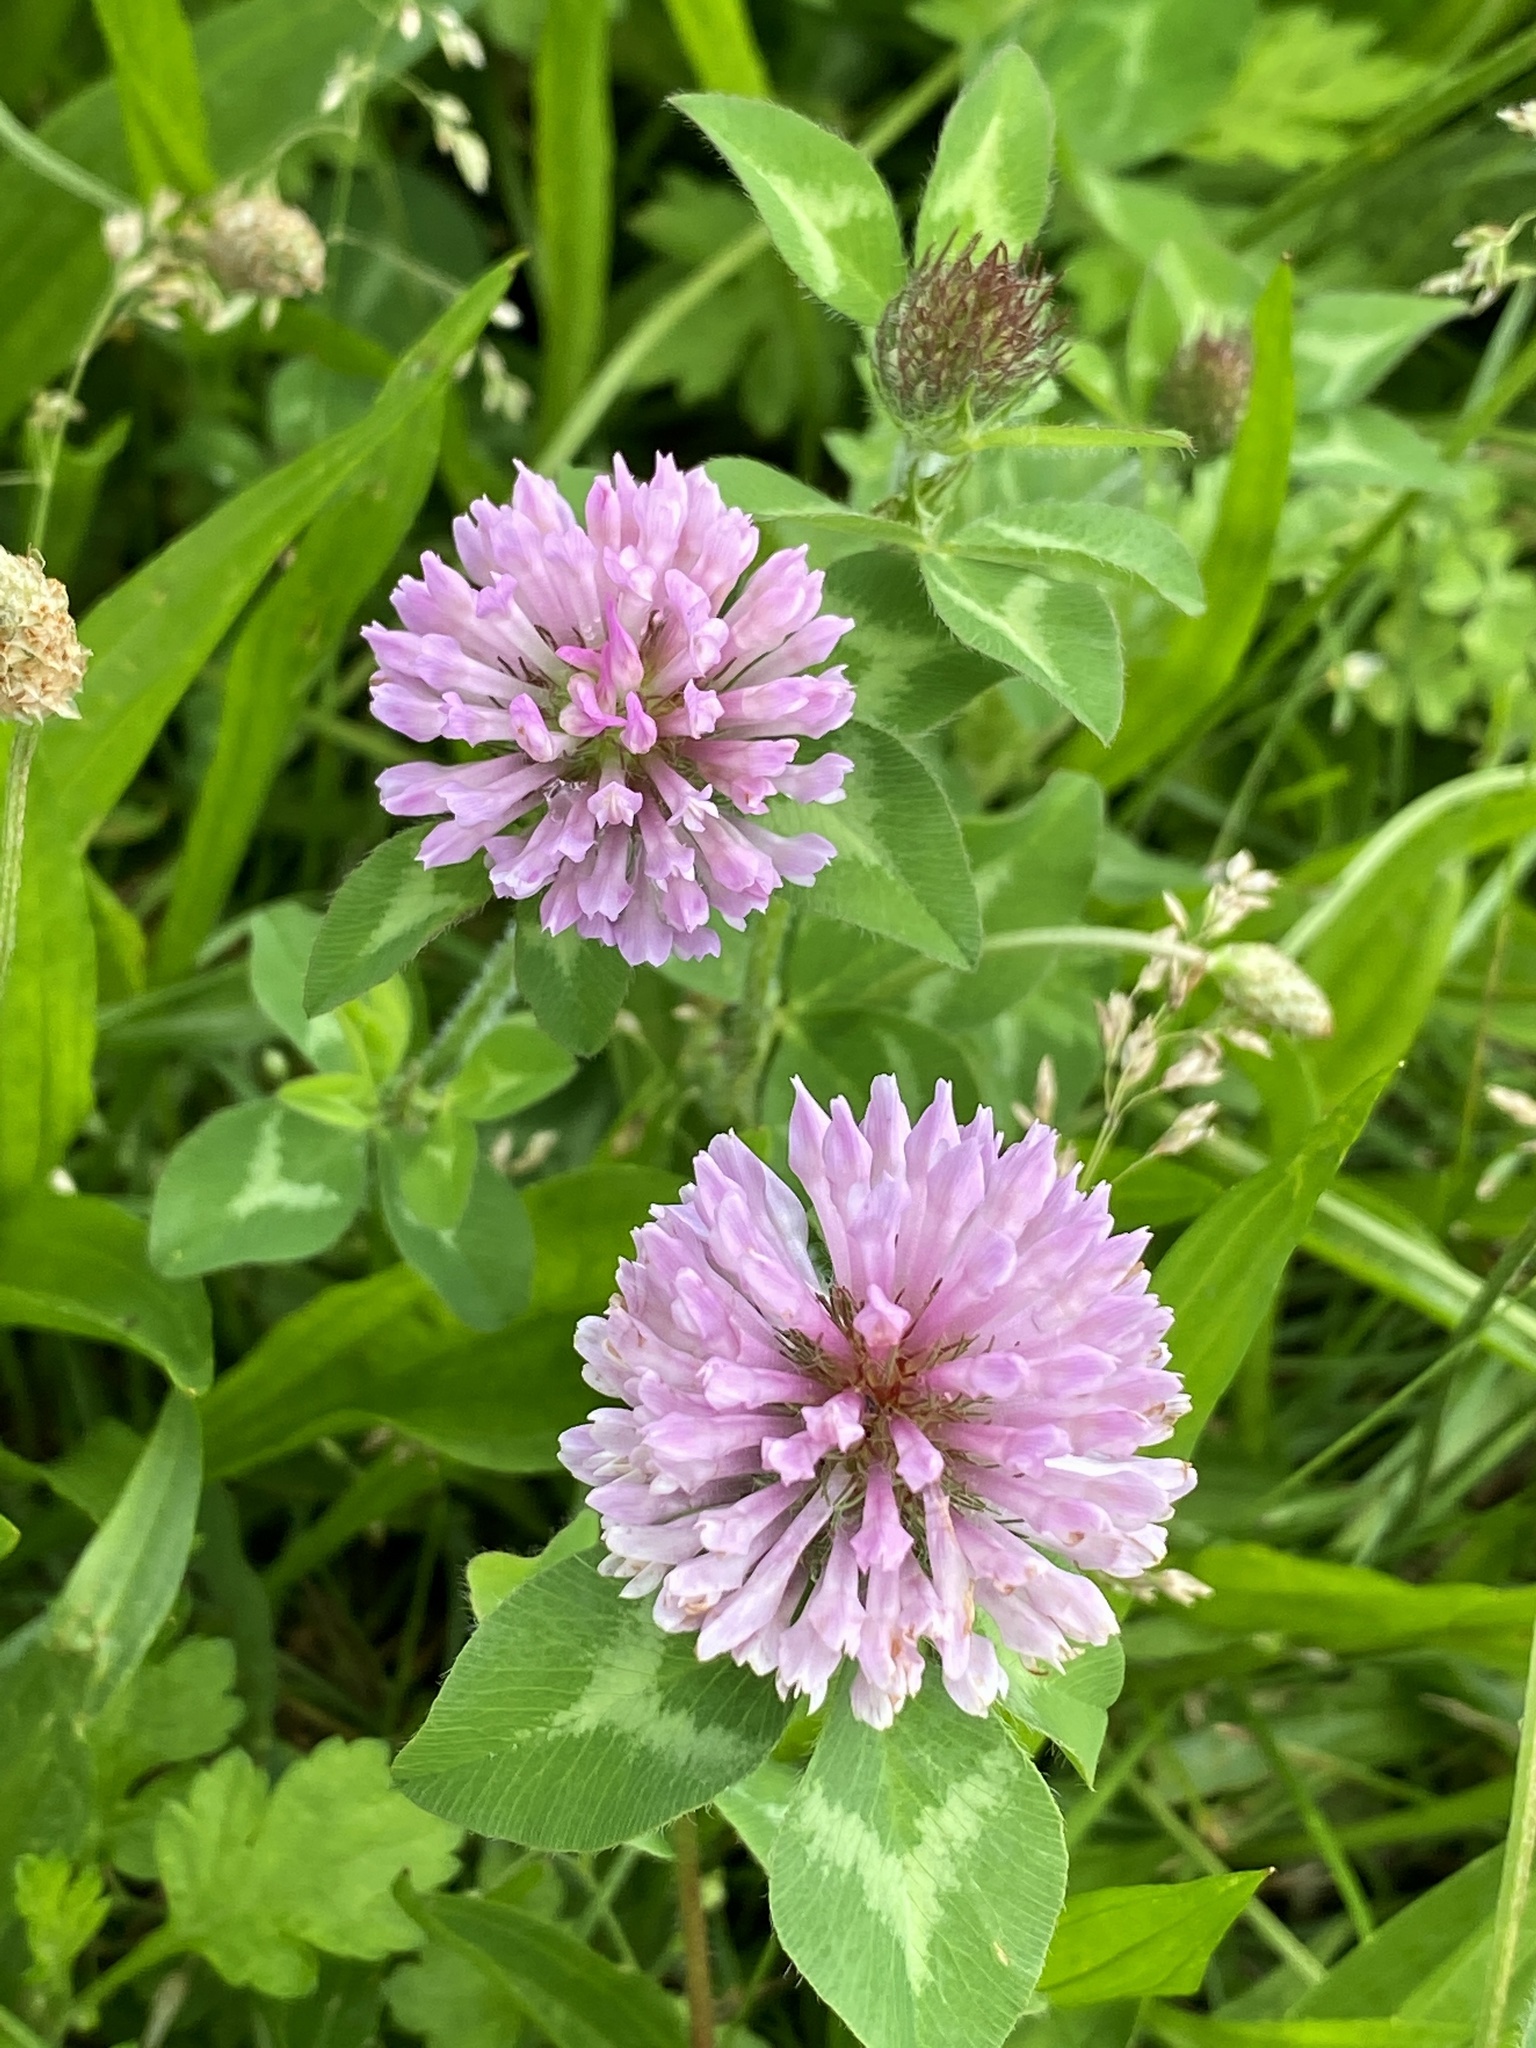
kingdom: Plantae
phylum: Tracheophyta
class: Magnoliopsida
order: Fabales
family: Fabaceae
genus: Trifolium
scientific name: Trifolium pratense
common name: Red clover
